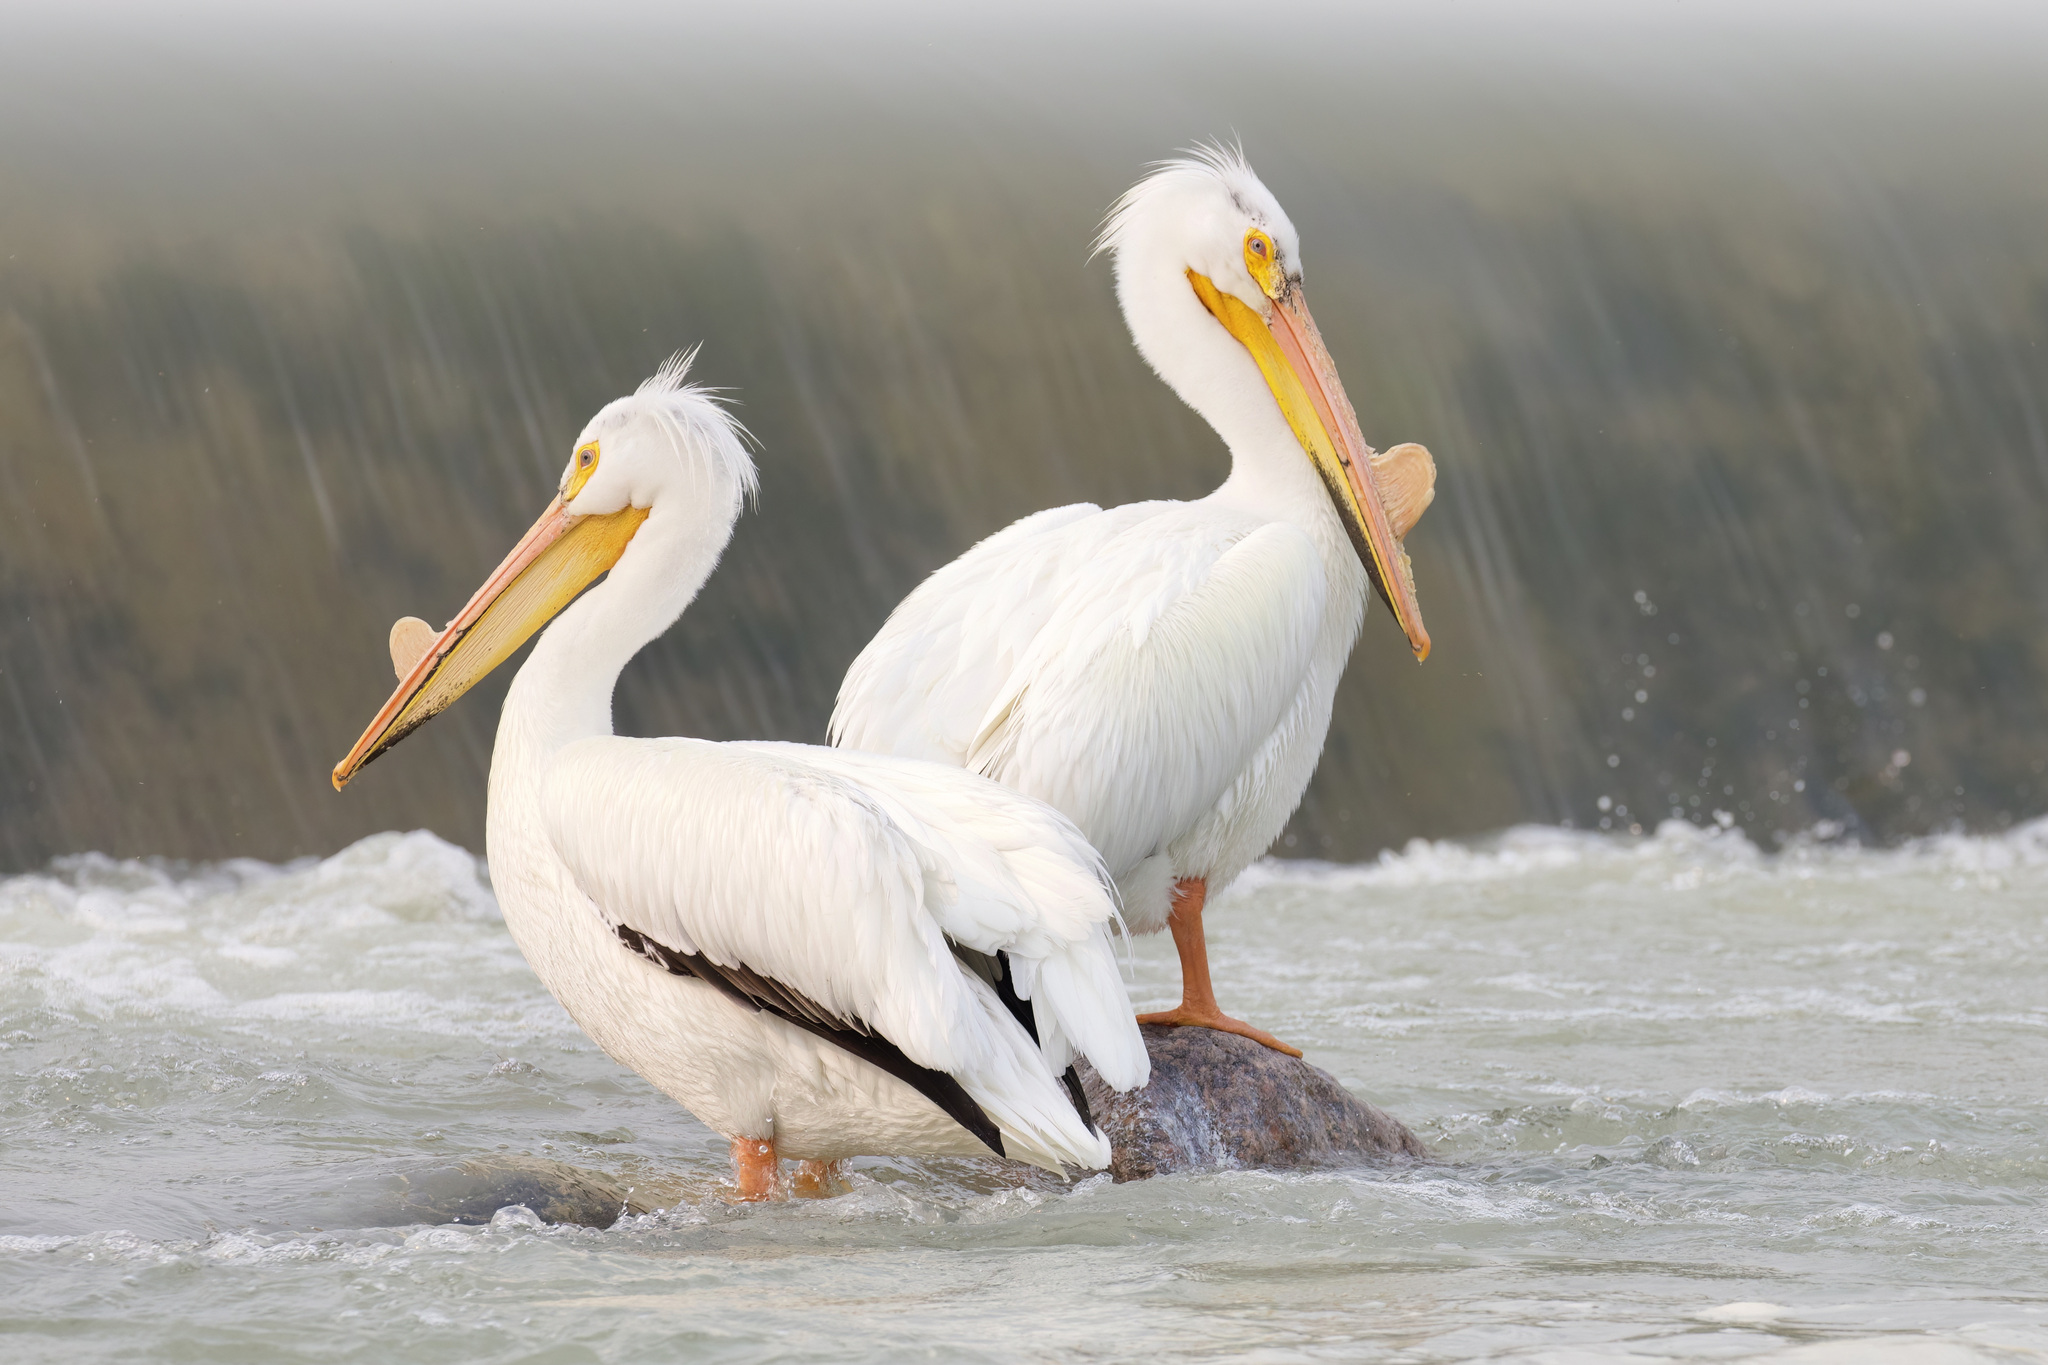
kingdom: Animalia
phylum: Chordata
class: Aves
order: Pelecaniformes
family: Pelecanidae
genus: Pelecanus
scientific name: Pelecanus erythrorhynchos
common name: American white pelican
